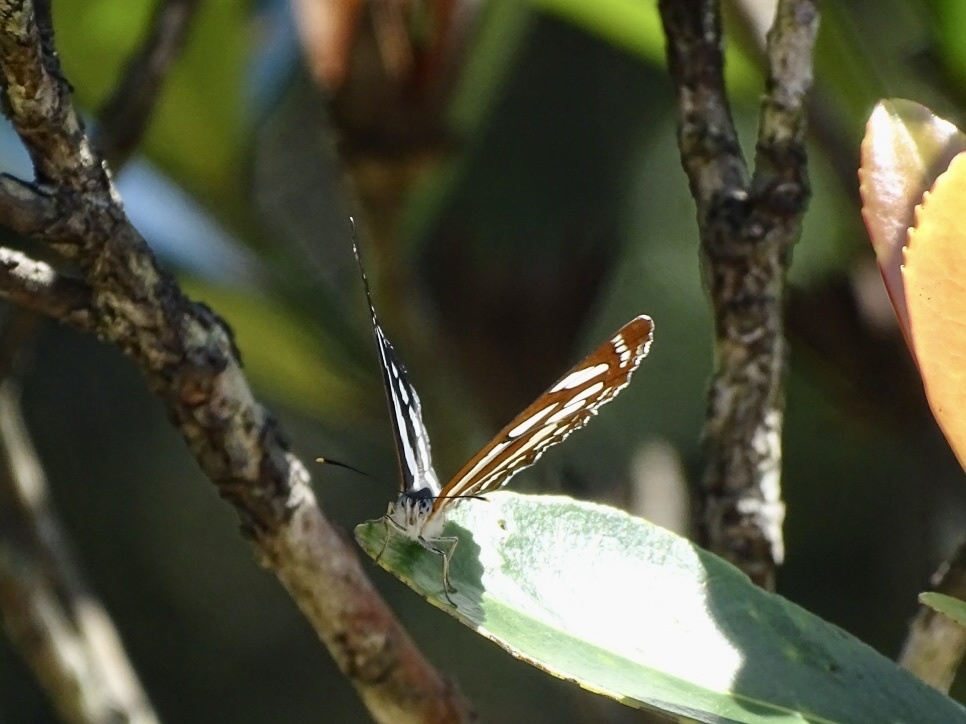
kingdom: Animalia
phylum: Arthropoda
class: Insecta
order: Lepidoptera
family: Nymphalidae
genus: Neptis
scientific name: Neptis hylas
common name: Common sailer
